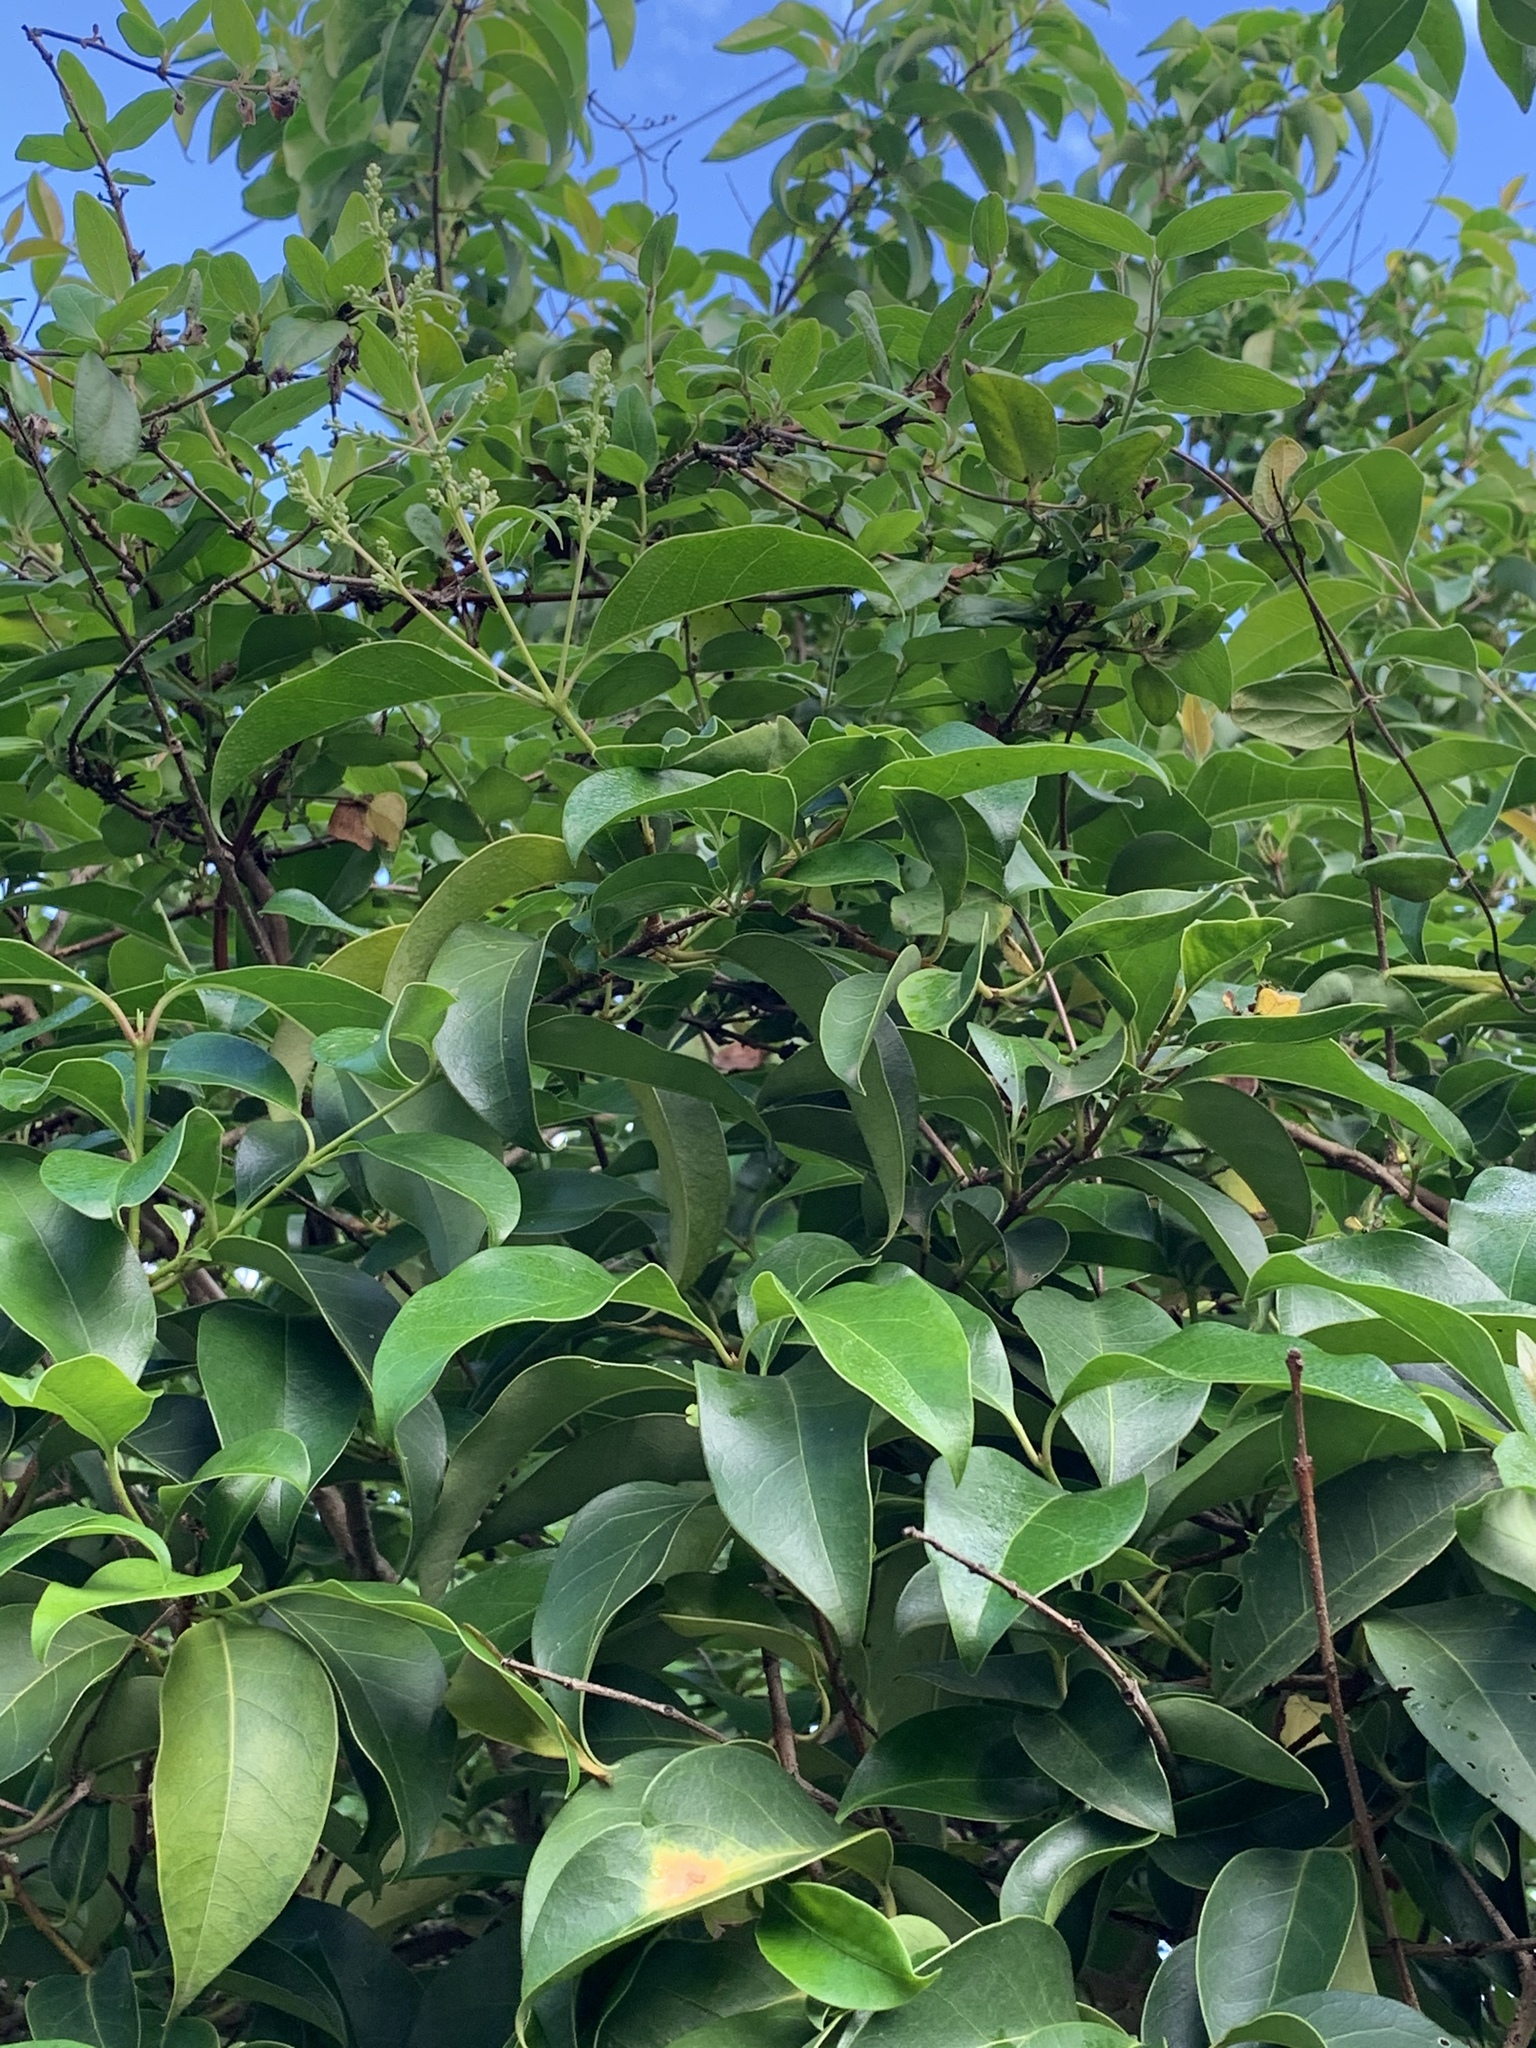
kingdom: Plantae
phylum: Tracheophyta
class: Magnoliopsida
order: Lamiales
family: Oleaceae
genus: Ligustrum
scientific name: Ligustrum lucidum
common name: Glossy privet
